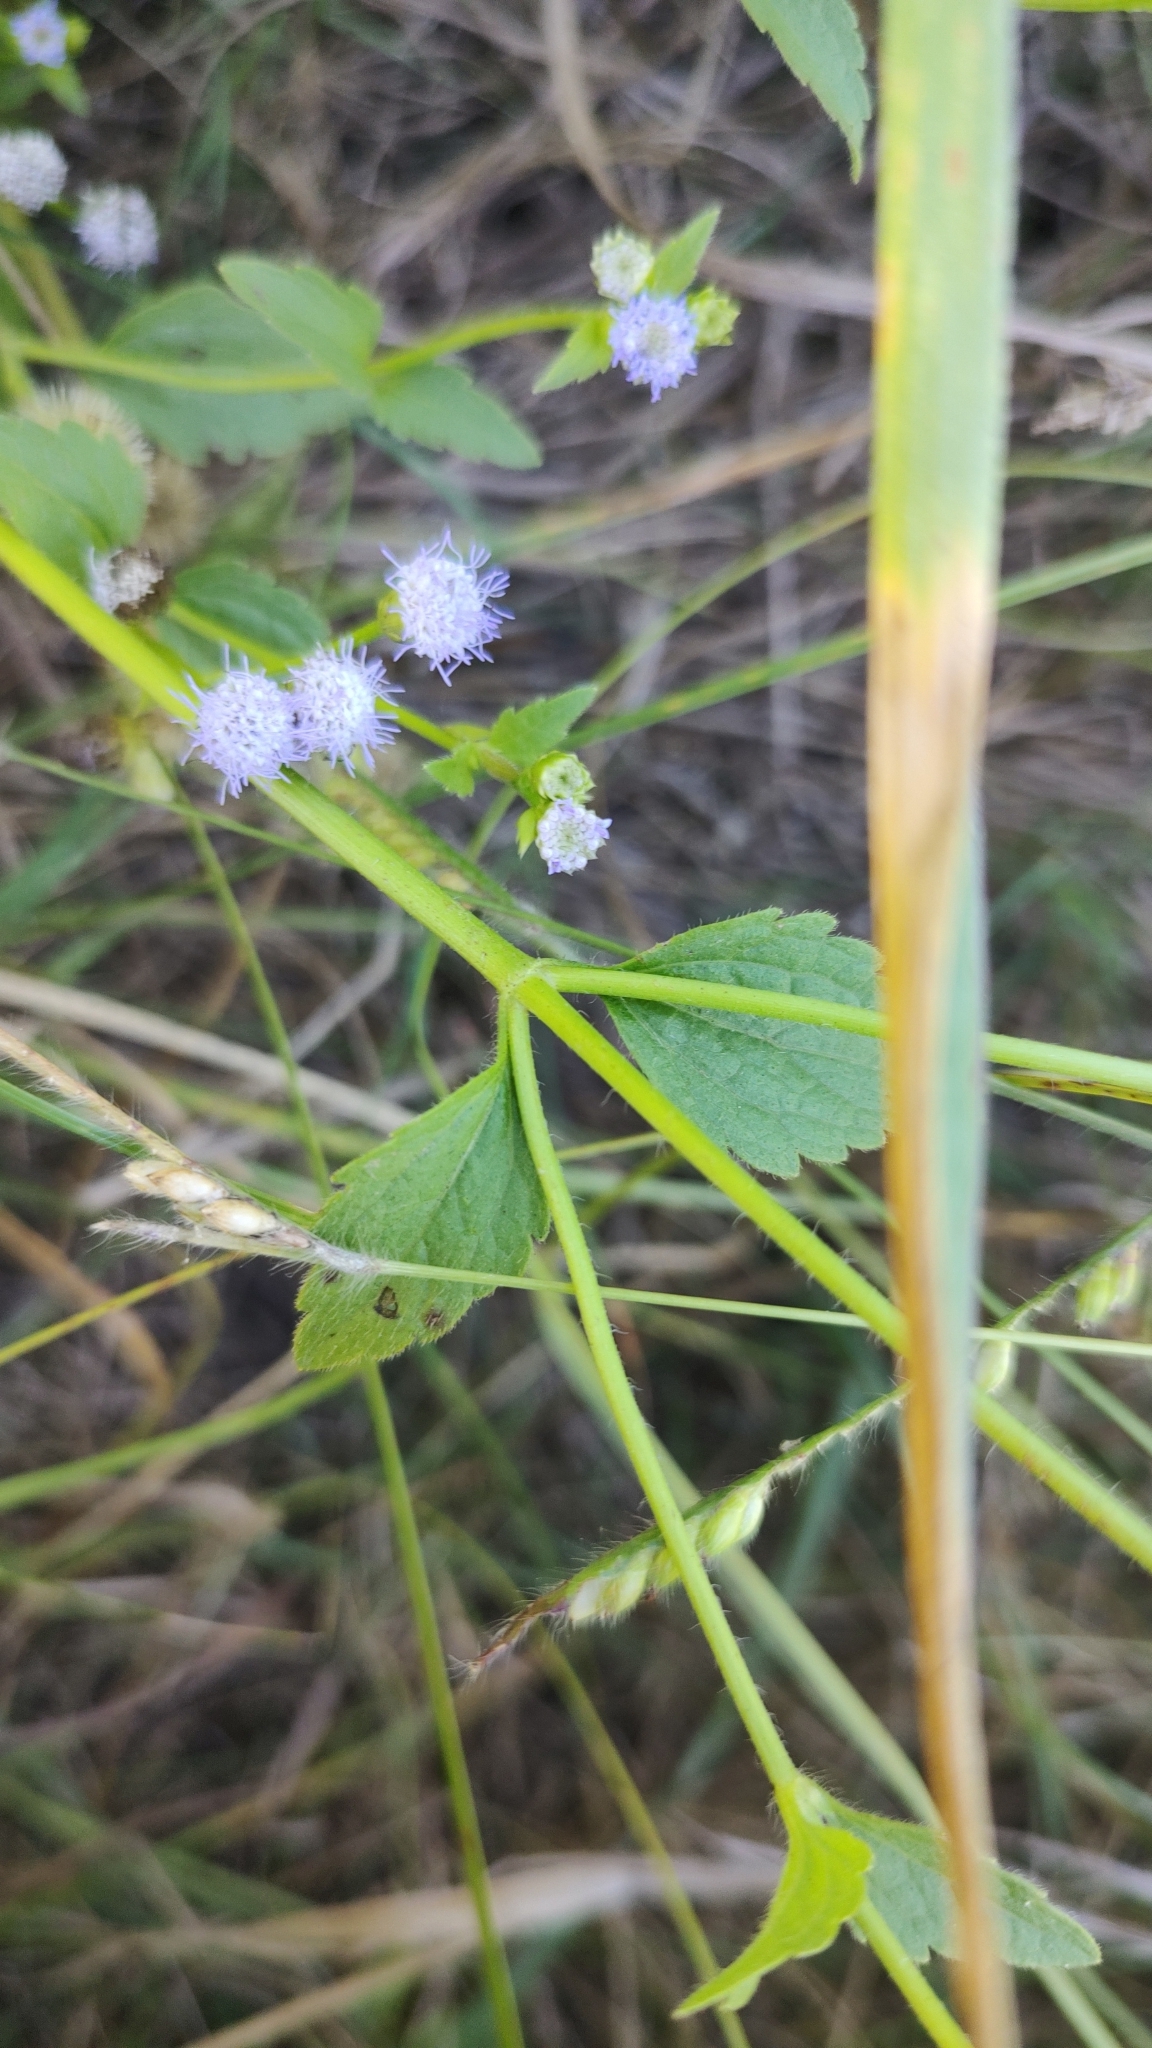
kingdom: Plantae
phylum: Tracheophyta
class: Magnoliopsida
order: Asterales
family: Asteraceae
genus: Praxelis
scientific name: Praxelis clematidea
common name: Praxelis
